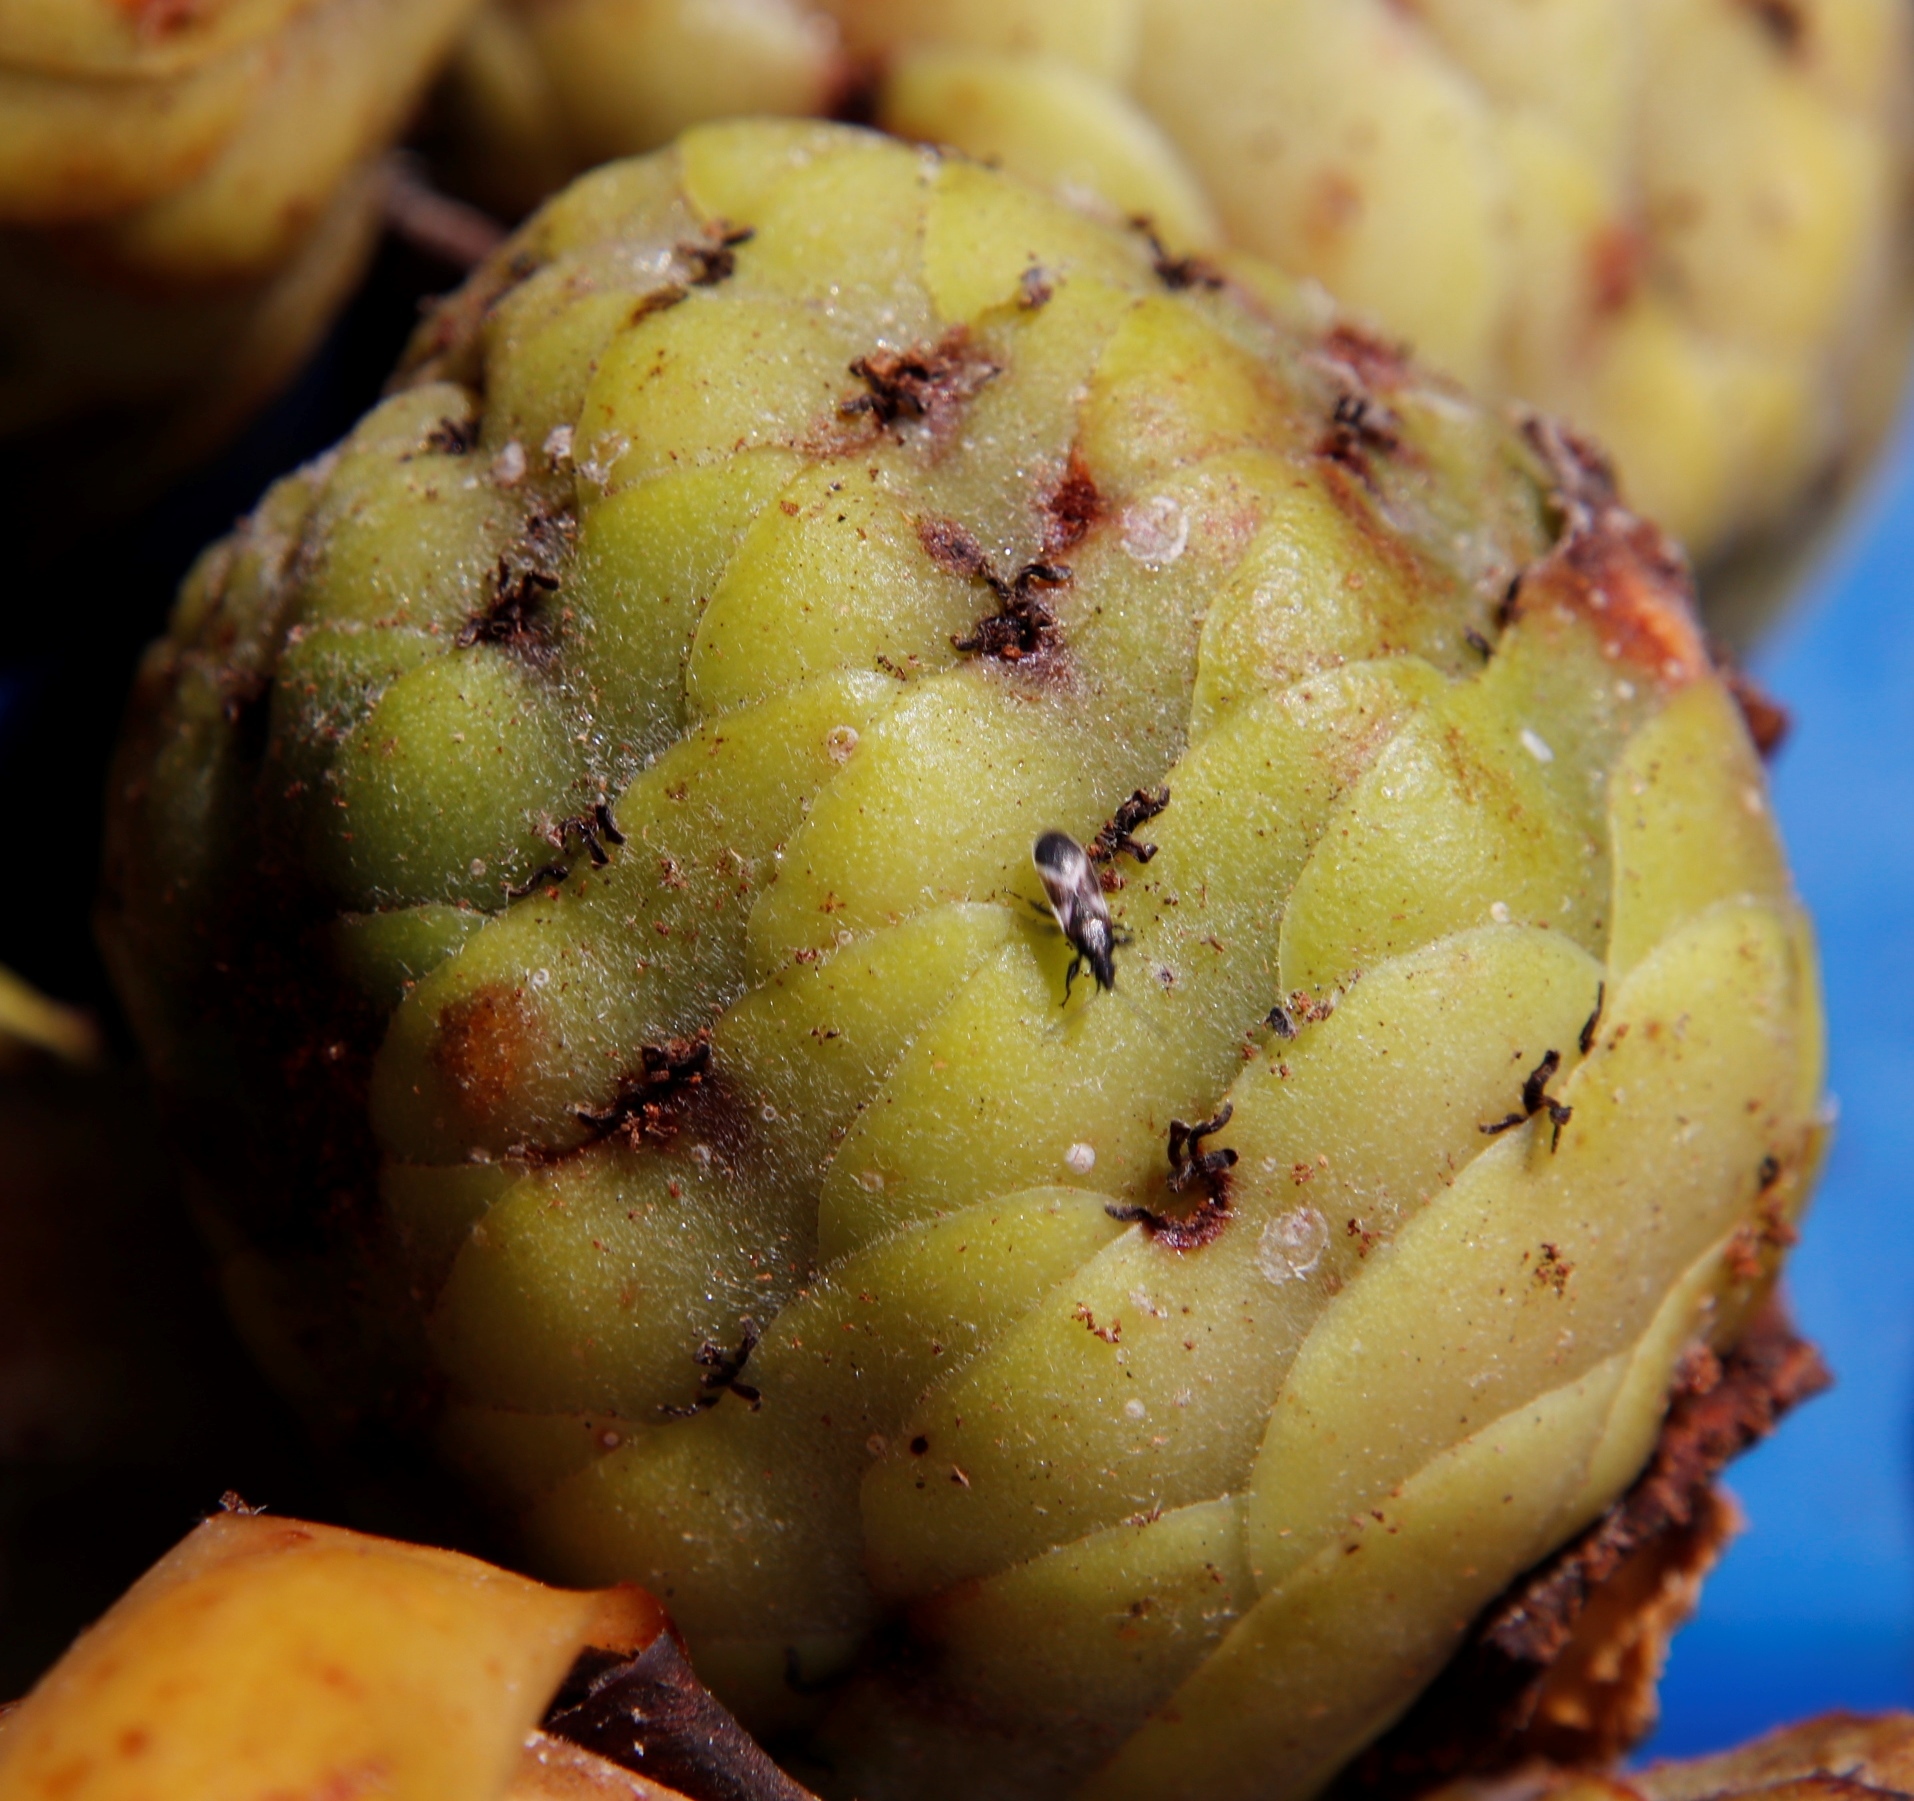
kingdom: Plantae
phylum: Tracheophyta
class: Magnoliopsida
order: Proteales
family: Proteaceae
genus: Leucadendron
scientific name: Leucadendron laureolum
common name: Golden sunshinebush
